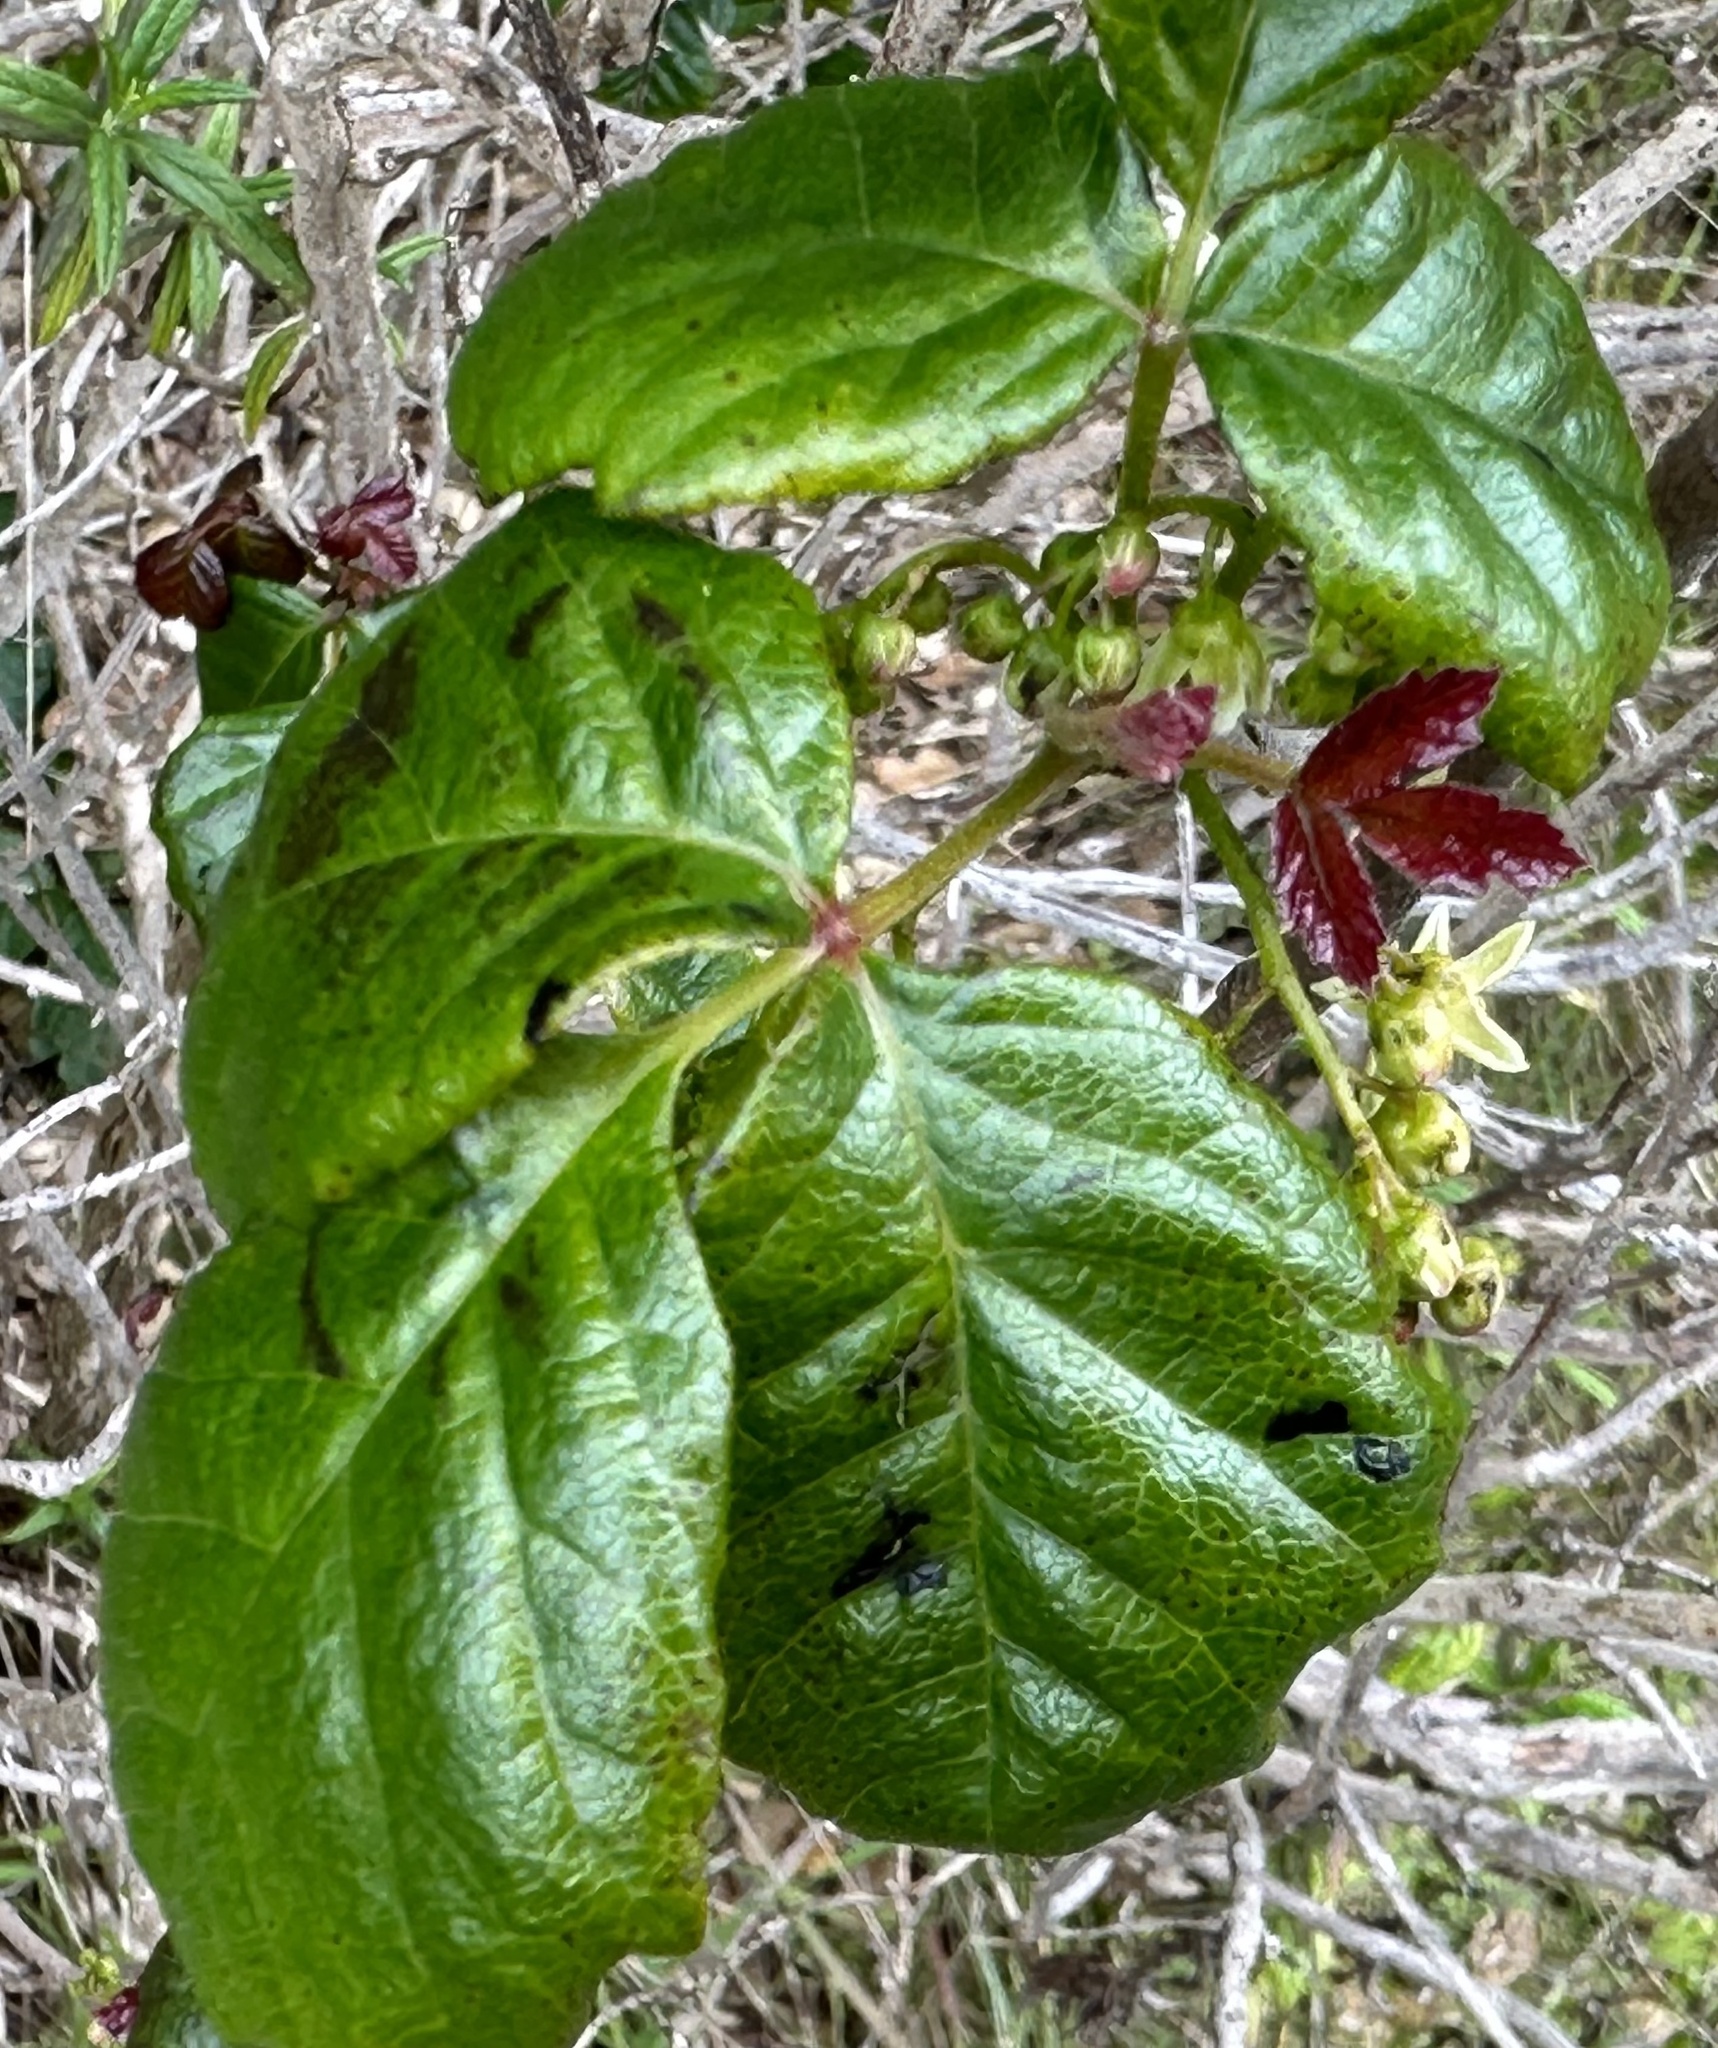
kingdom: Plantae
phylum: Tracheophyta
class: Magnoliopsida
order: Sapindales
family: Anacardiaceae
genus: Toxicodendron
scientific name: Toxicodendron diversilobum
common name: Pacific poison-oak
